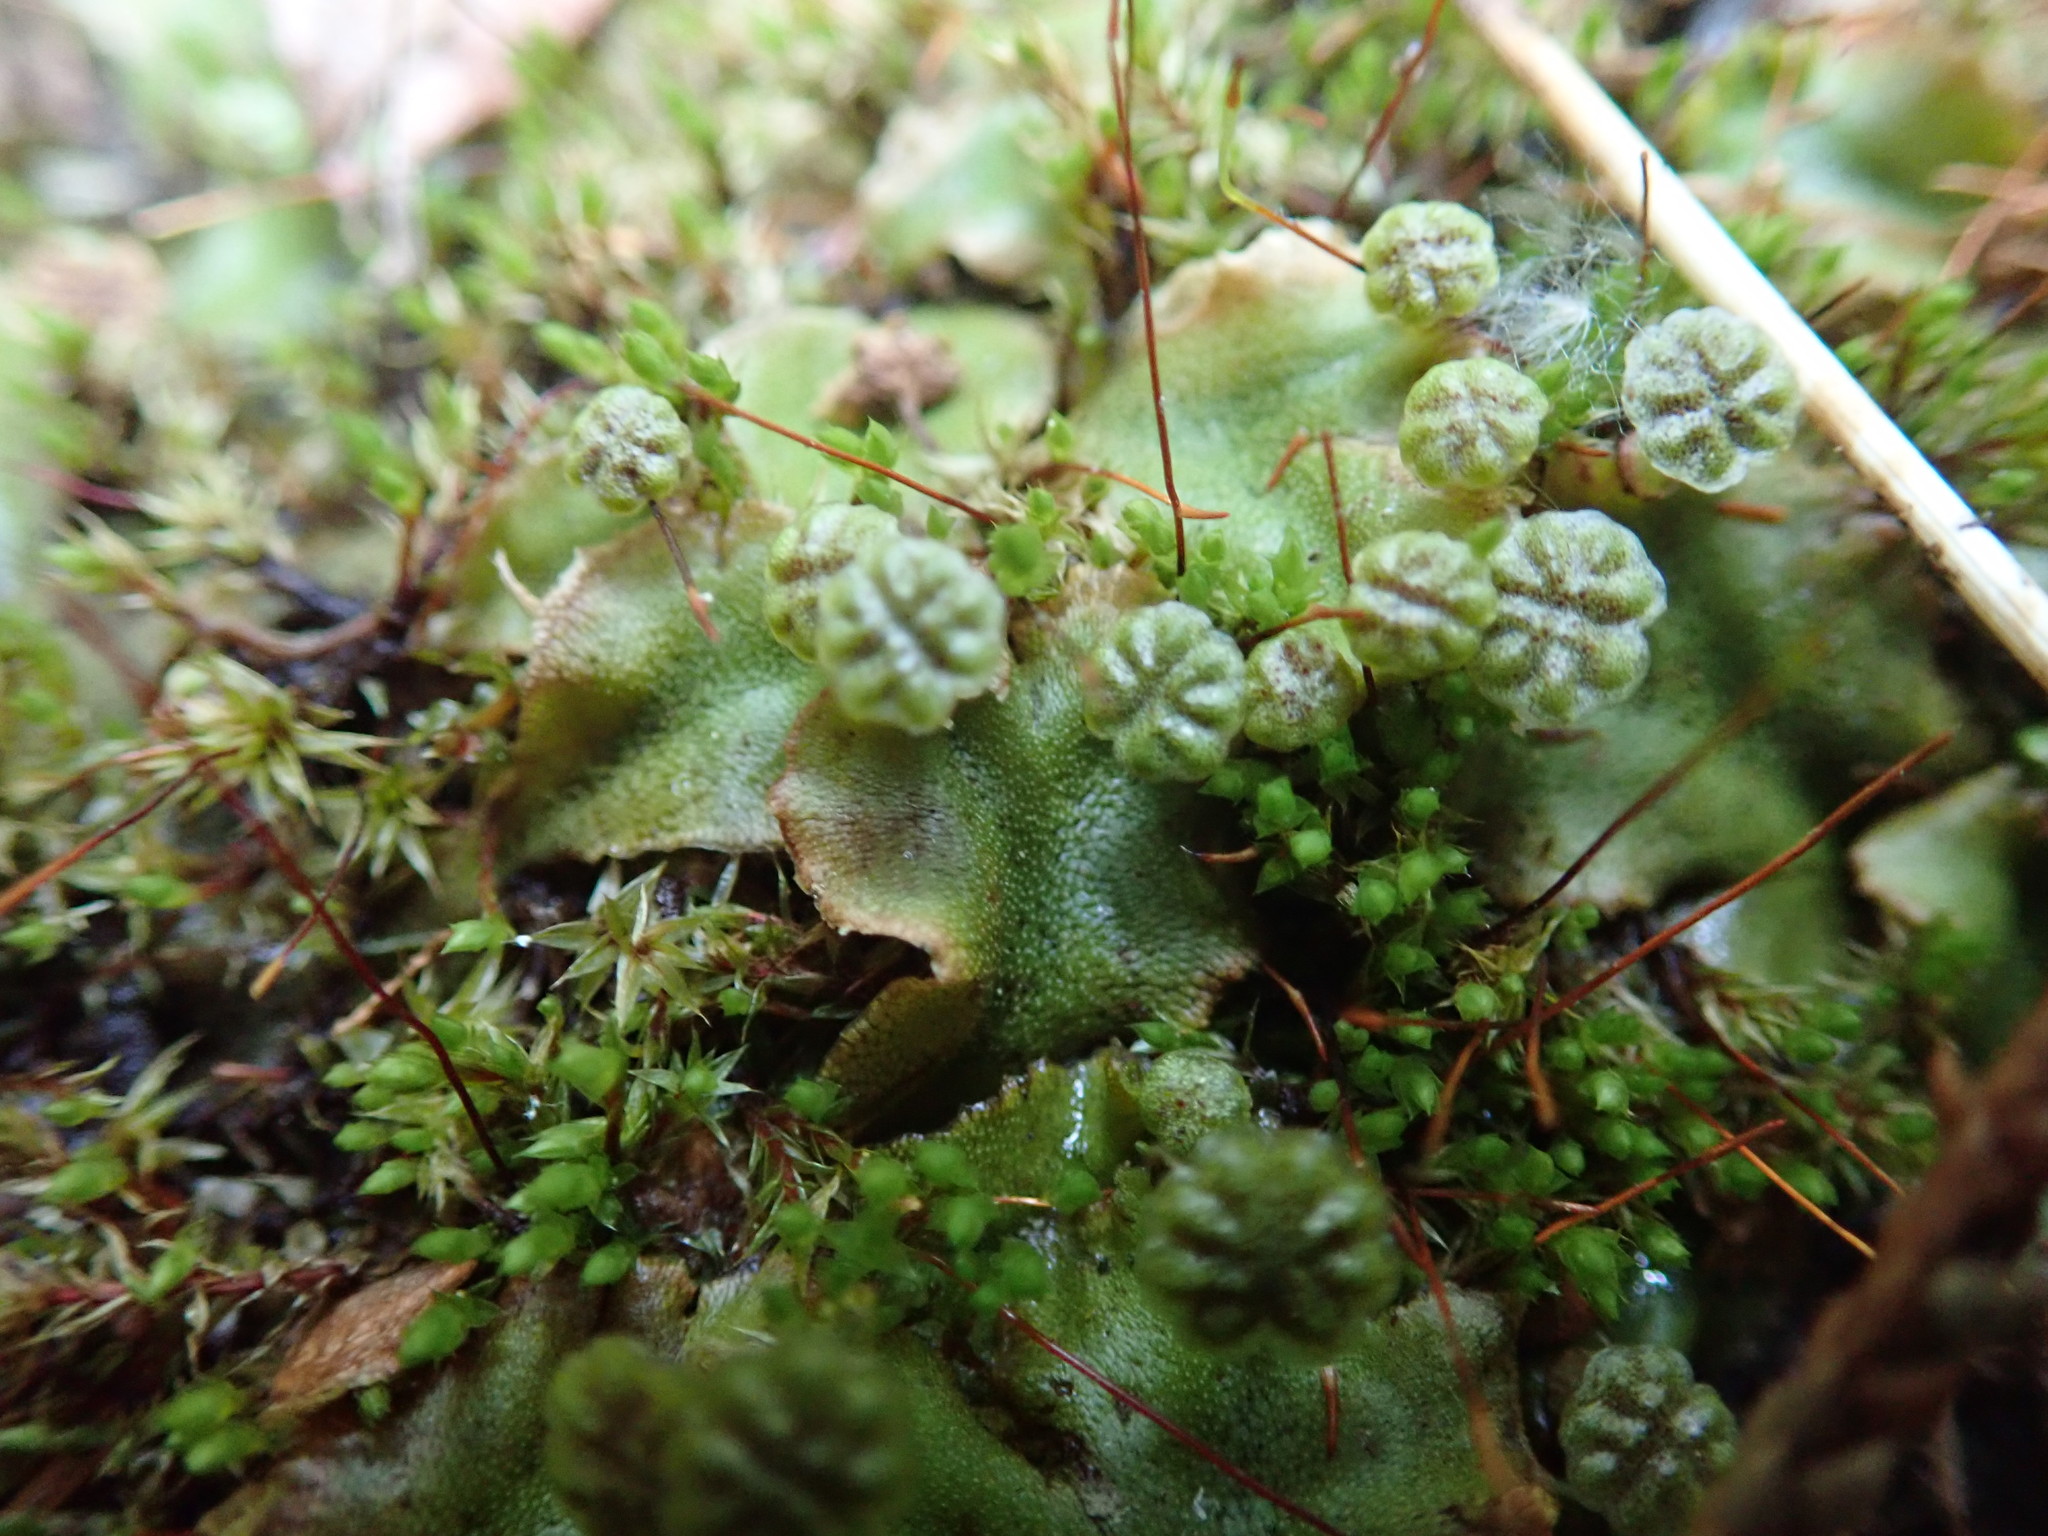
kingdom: Plantae
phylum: Marchantiophyta
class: Marchantiopsida
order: Marchantiales
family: Marchantiaceae
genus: Marchantia
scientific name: Marchantia polymorpha
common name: Common liverwort
